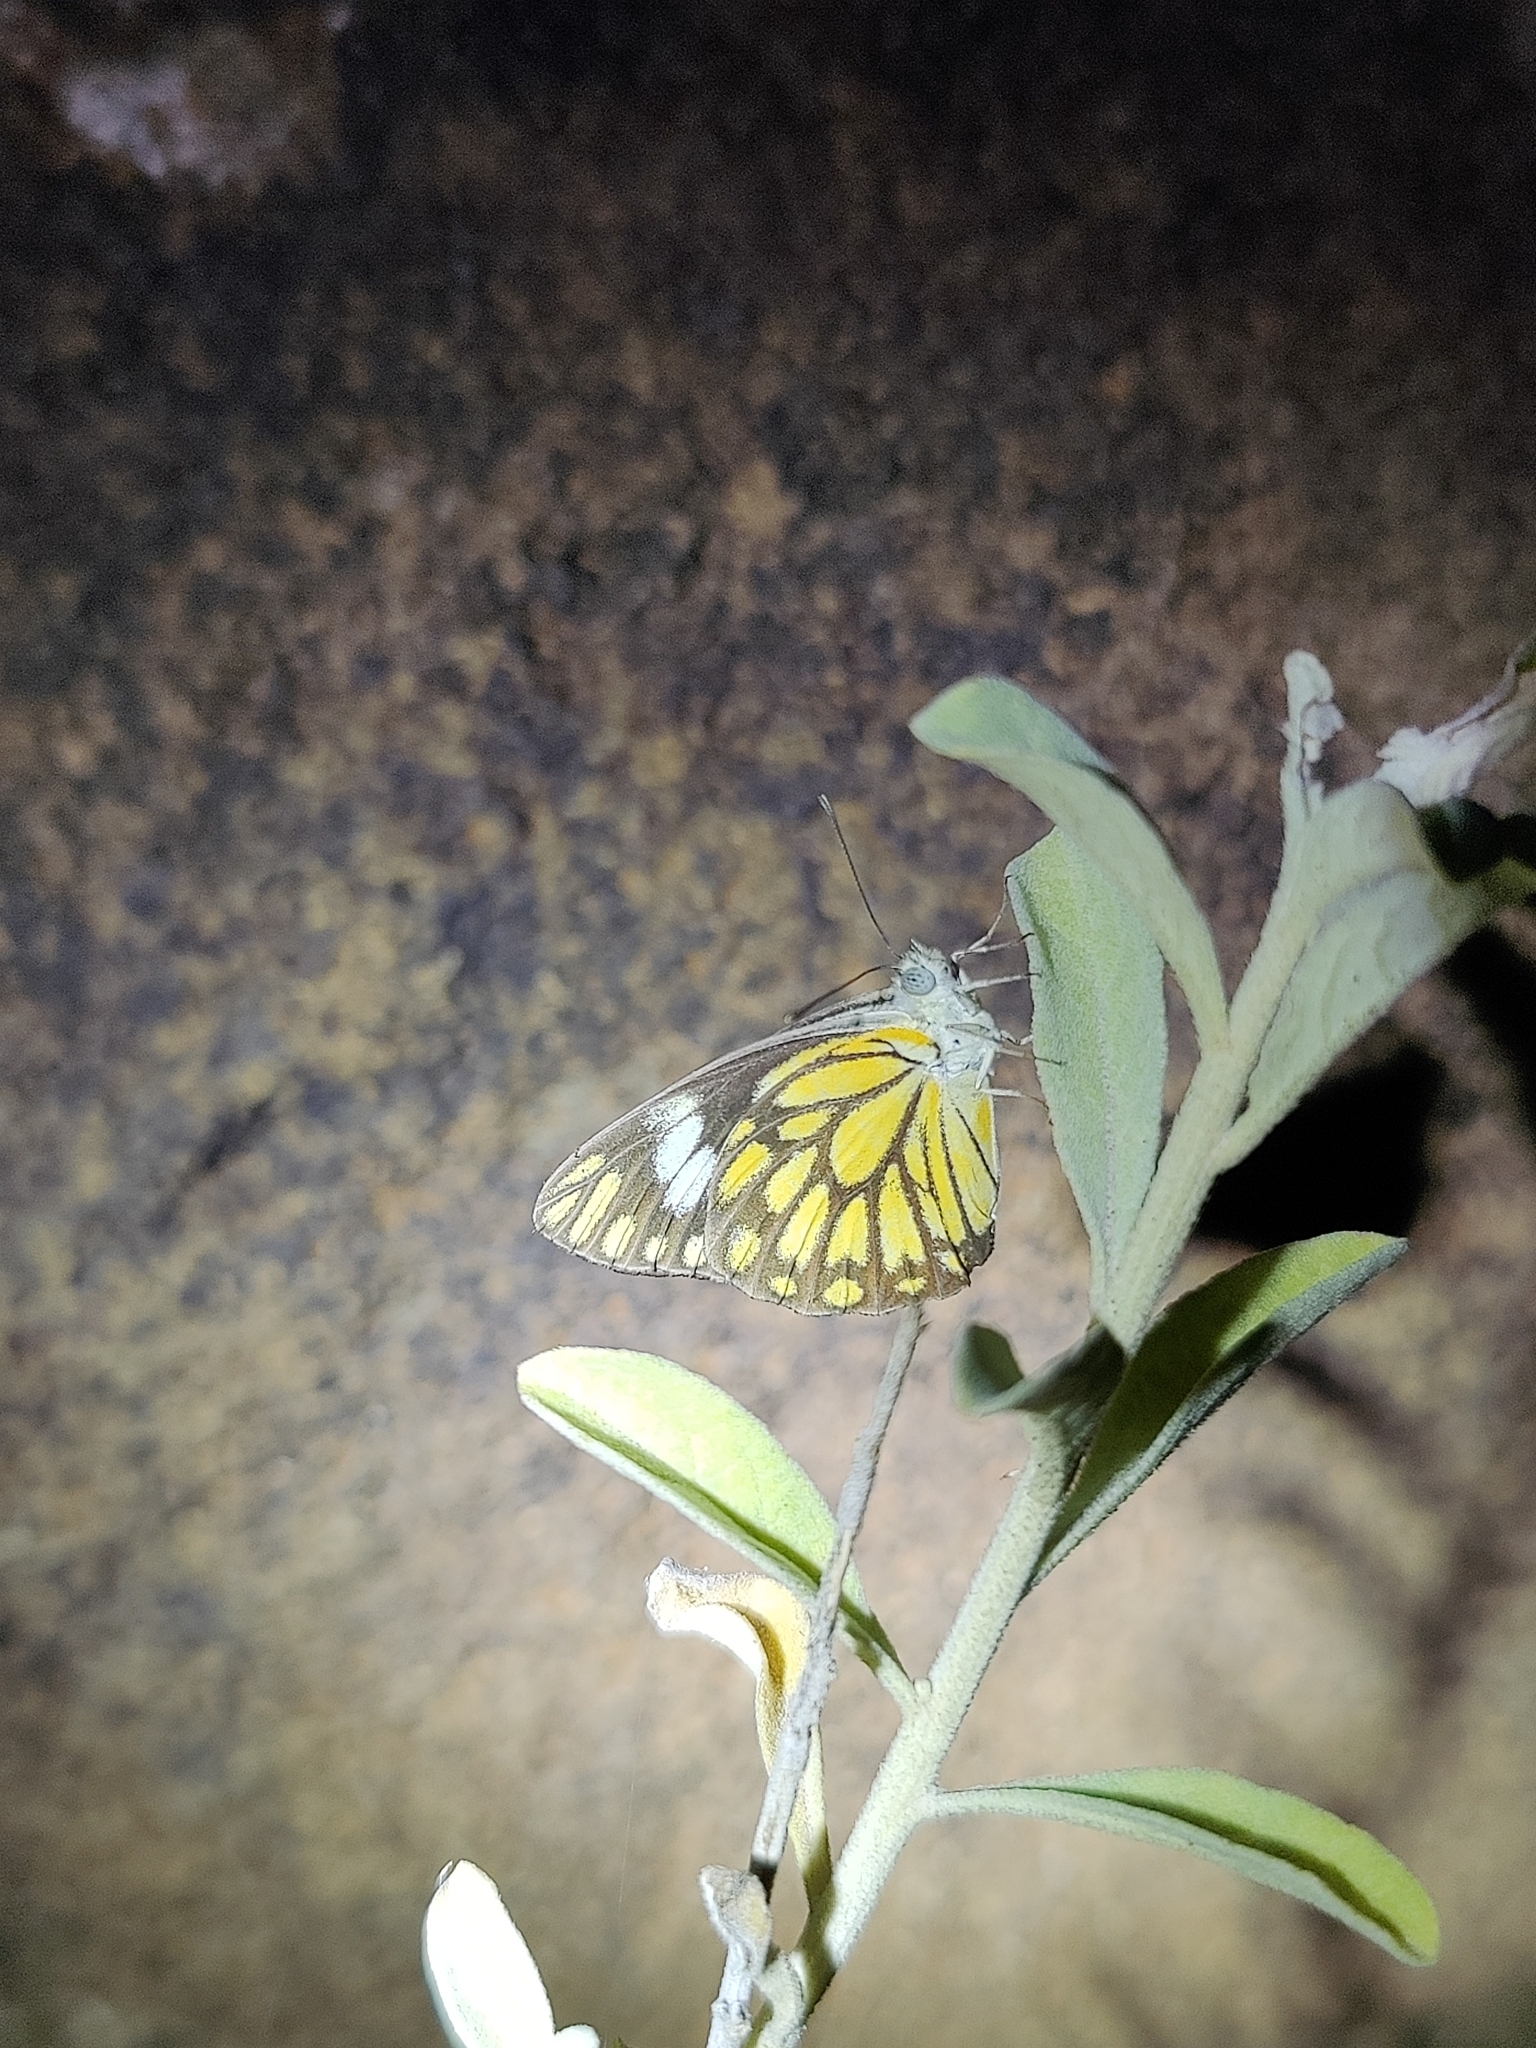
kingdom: Animalia
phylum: Arthropoda
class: Insecta
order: Lepidoptera
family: Pieridae
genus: Belenois
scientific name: Belenois aurota
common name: Brown-veined white
